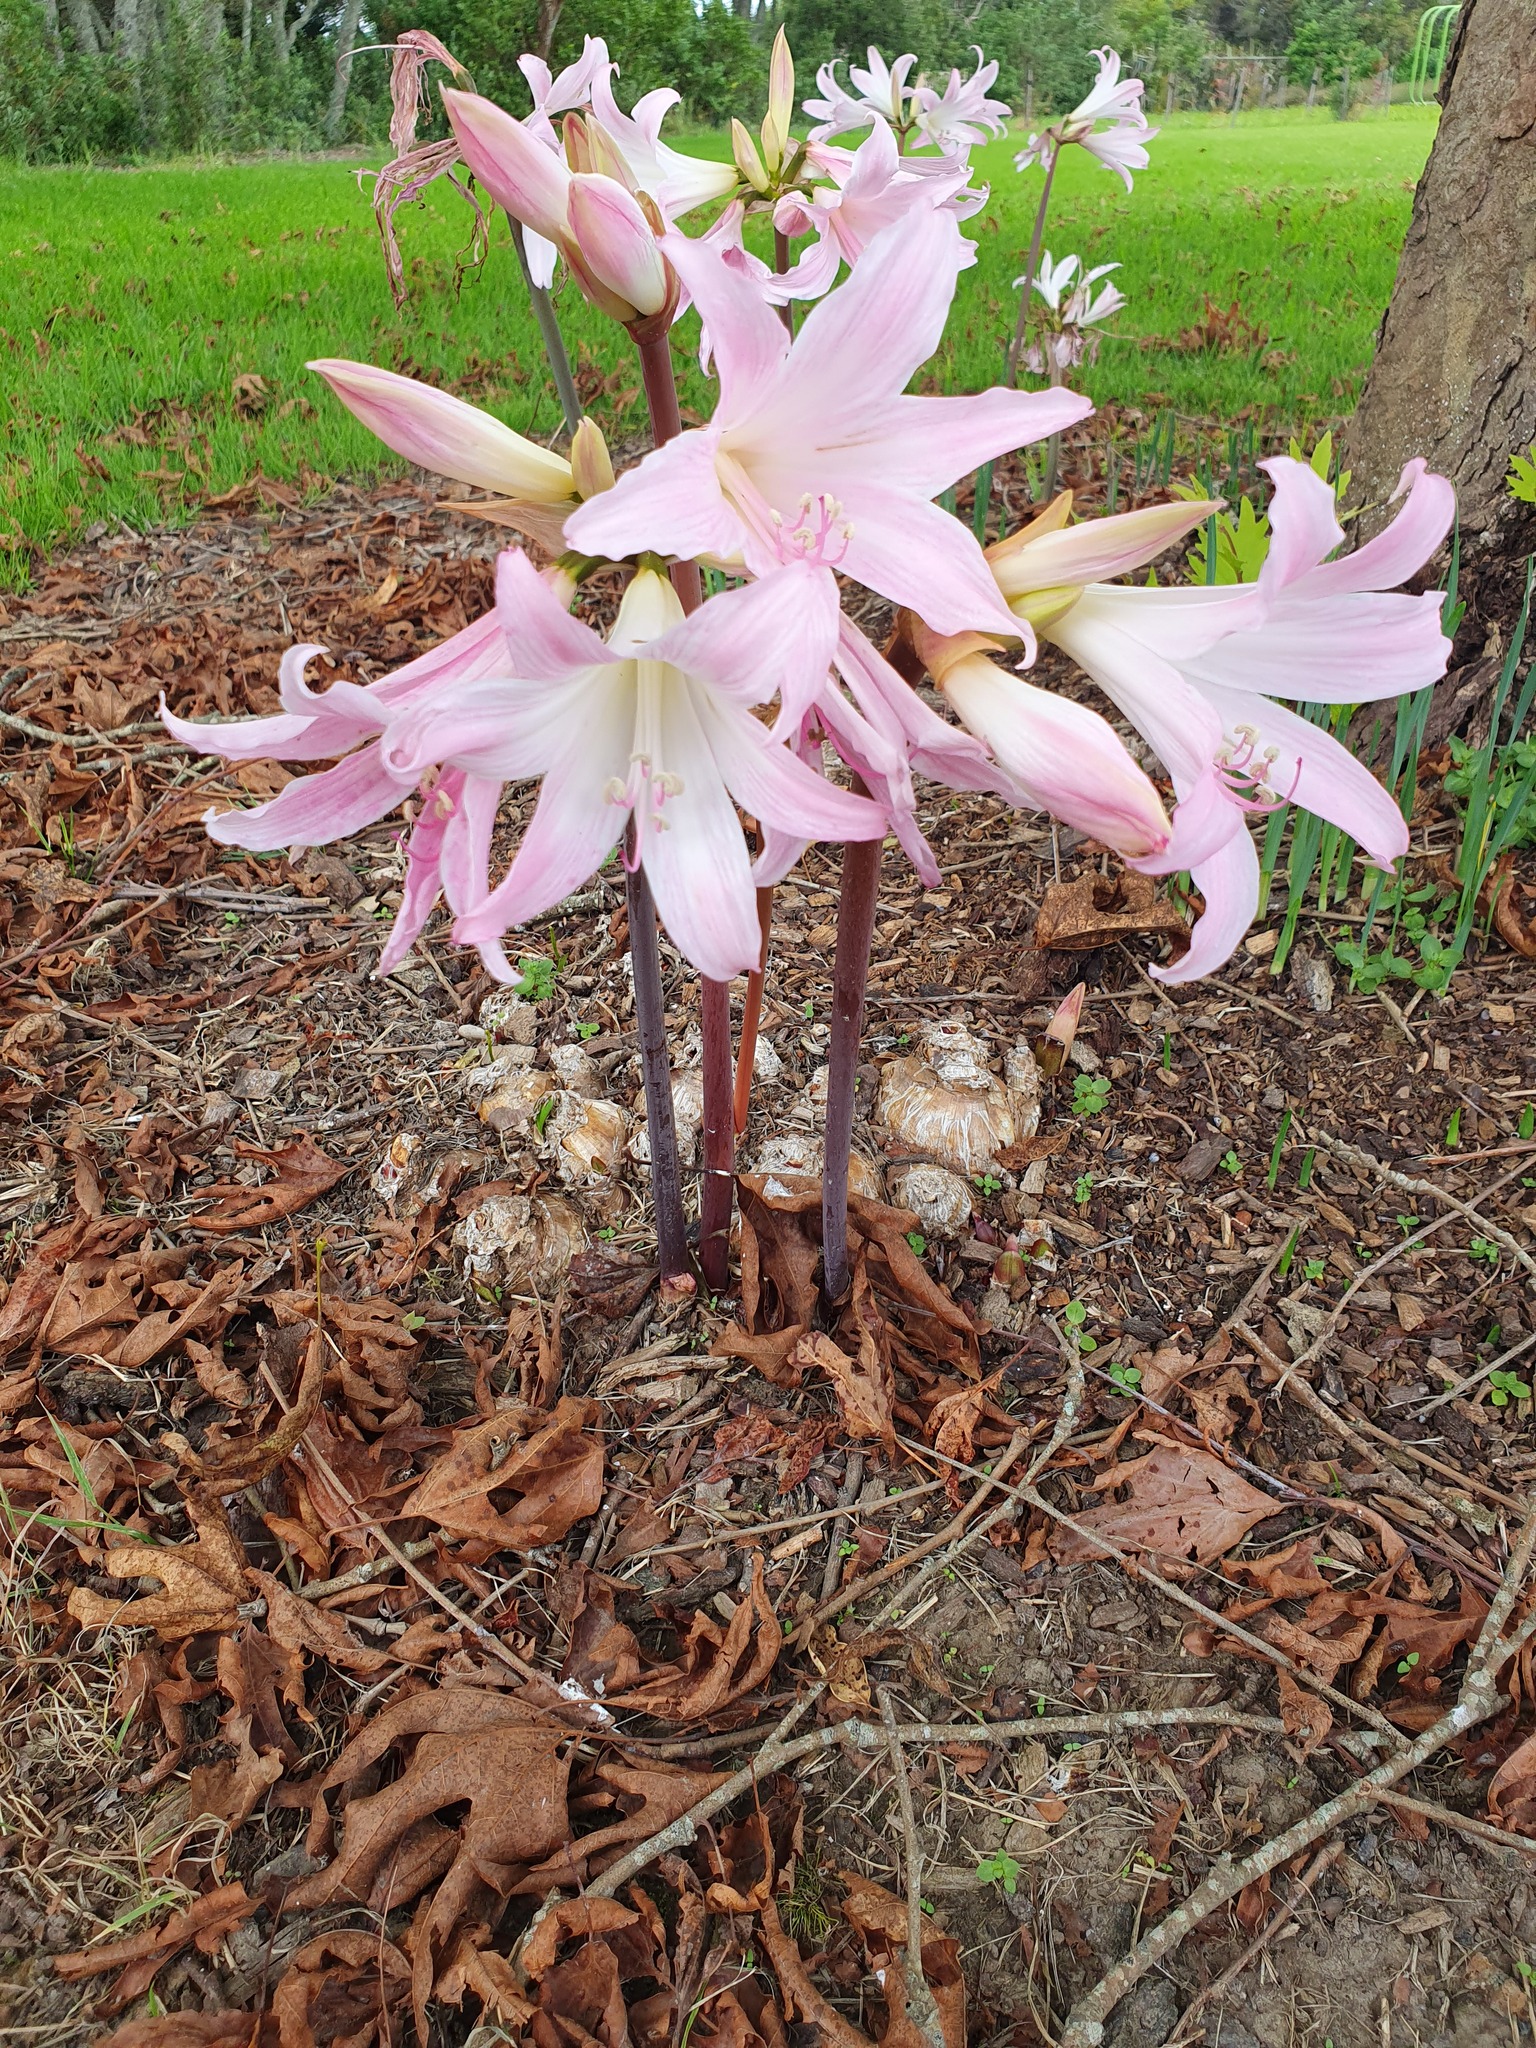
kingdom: Plantae
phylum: Tracheophyta
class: Liliopsida
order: Asparagales
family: Amaryllidaceae
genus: Amaryllis
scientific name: Amaryllis belladonna
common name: Jersey lily
